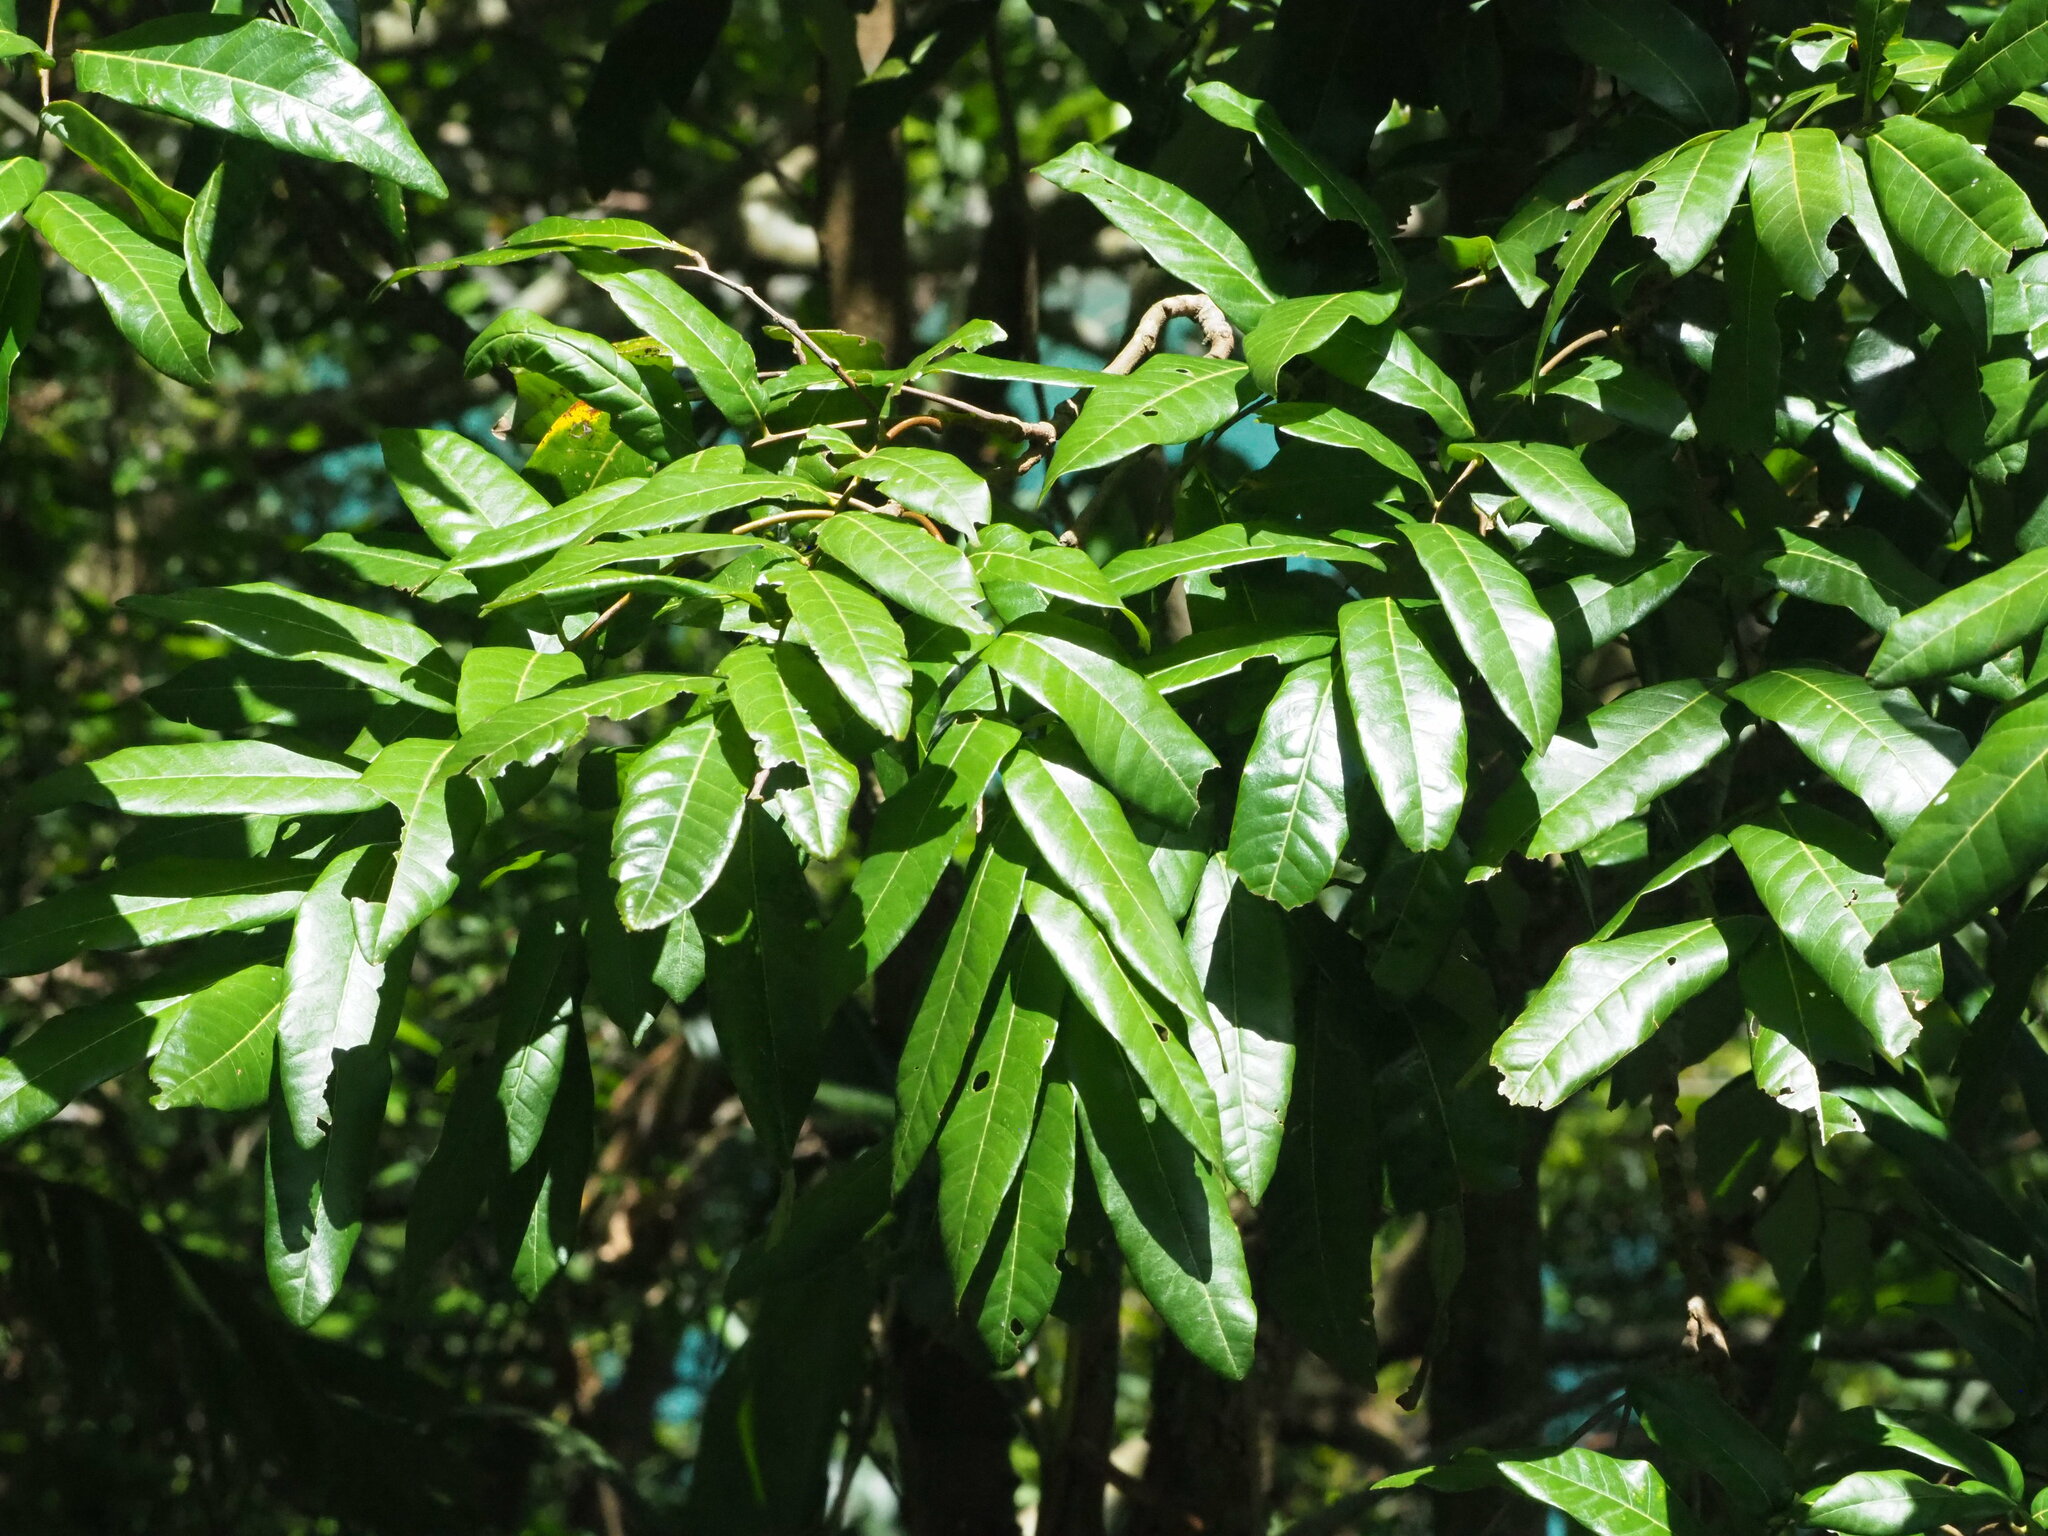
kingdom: Plantae
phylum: Tracheophyta
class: Magnoliopsida
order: Sapindales
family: Sapindaceae
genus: Dimocarpus
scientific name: Dimocarpus longan
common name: Longan
